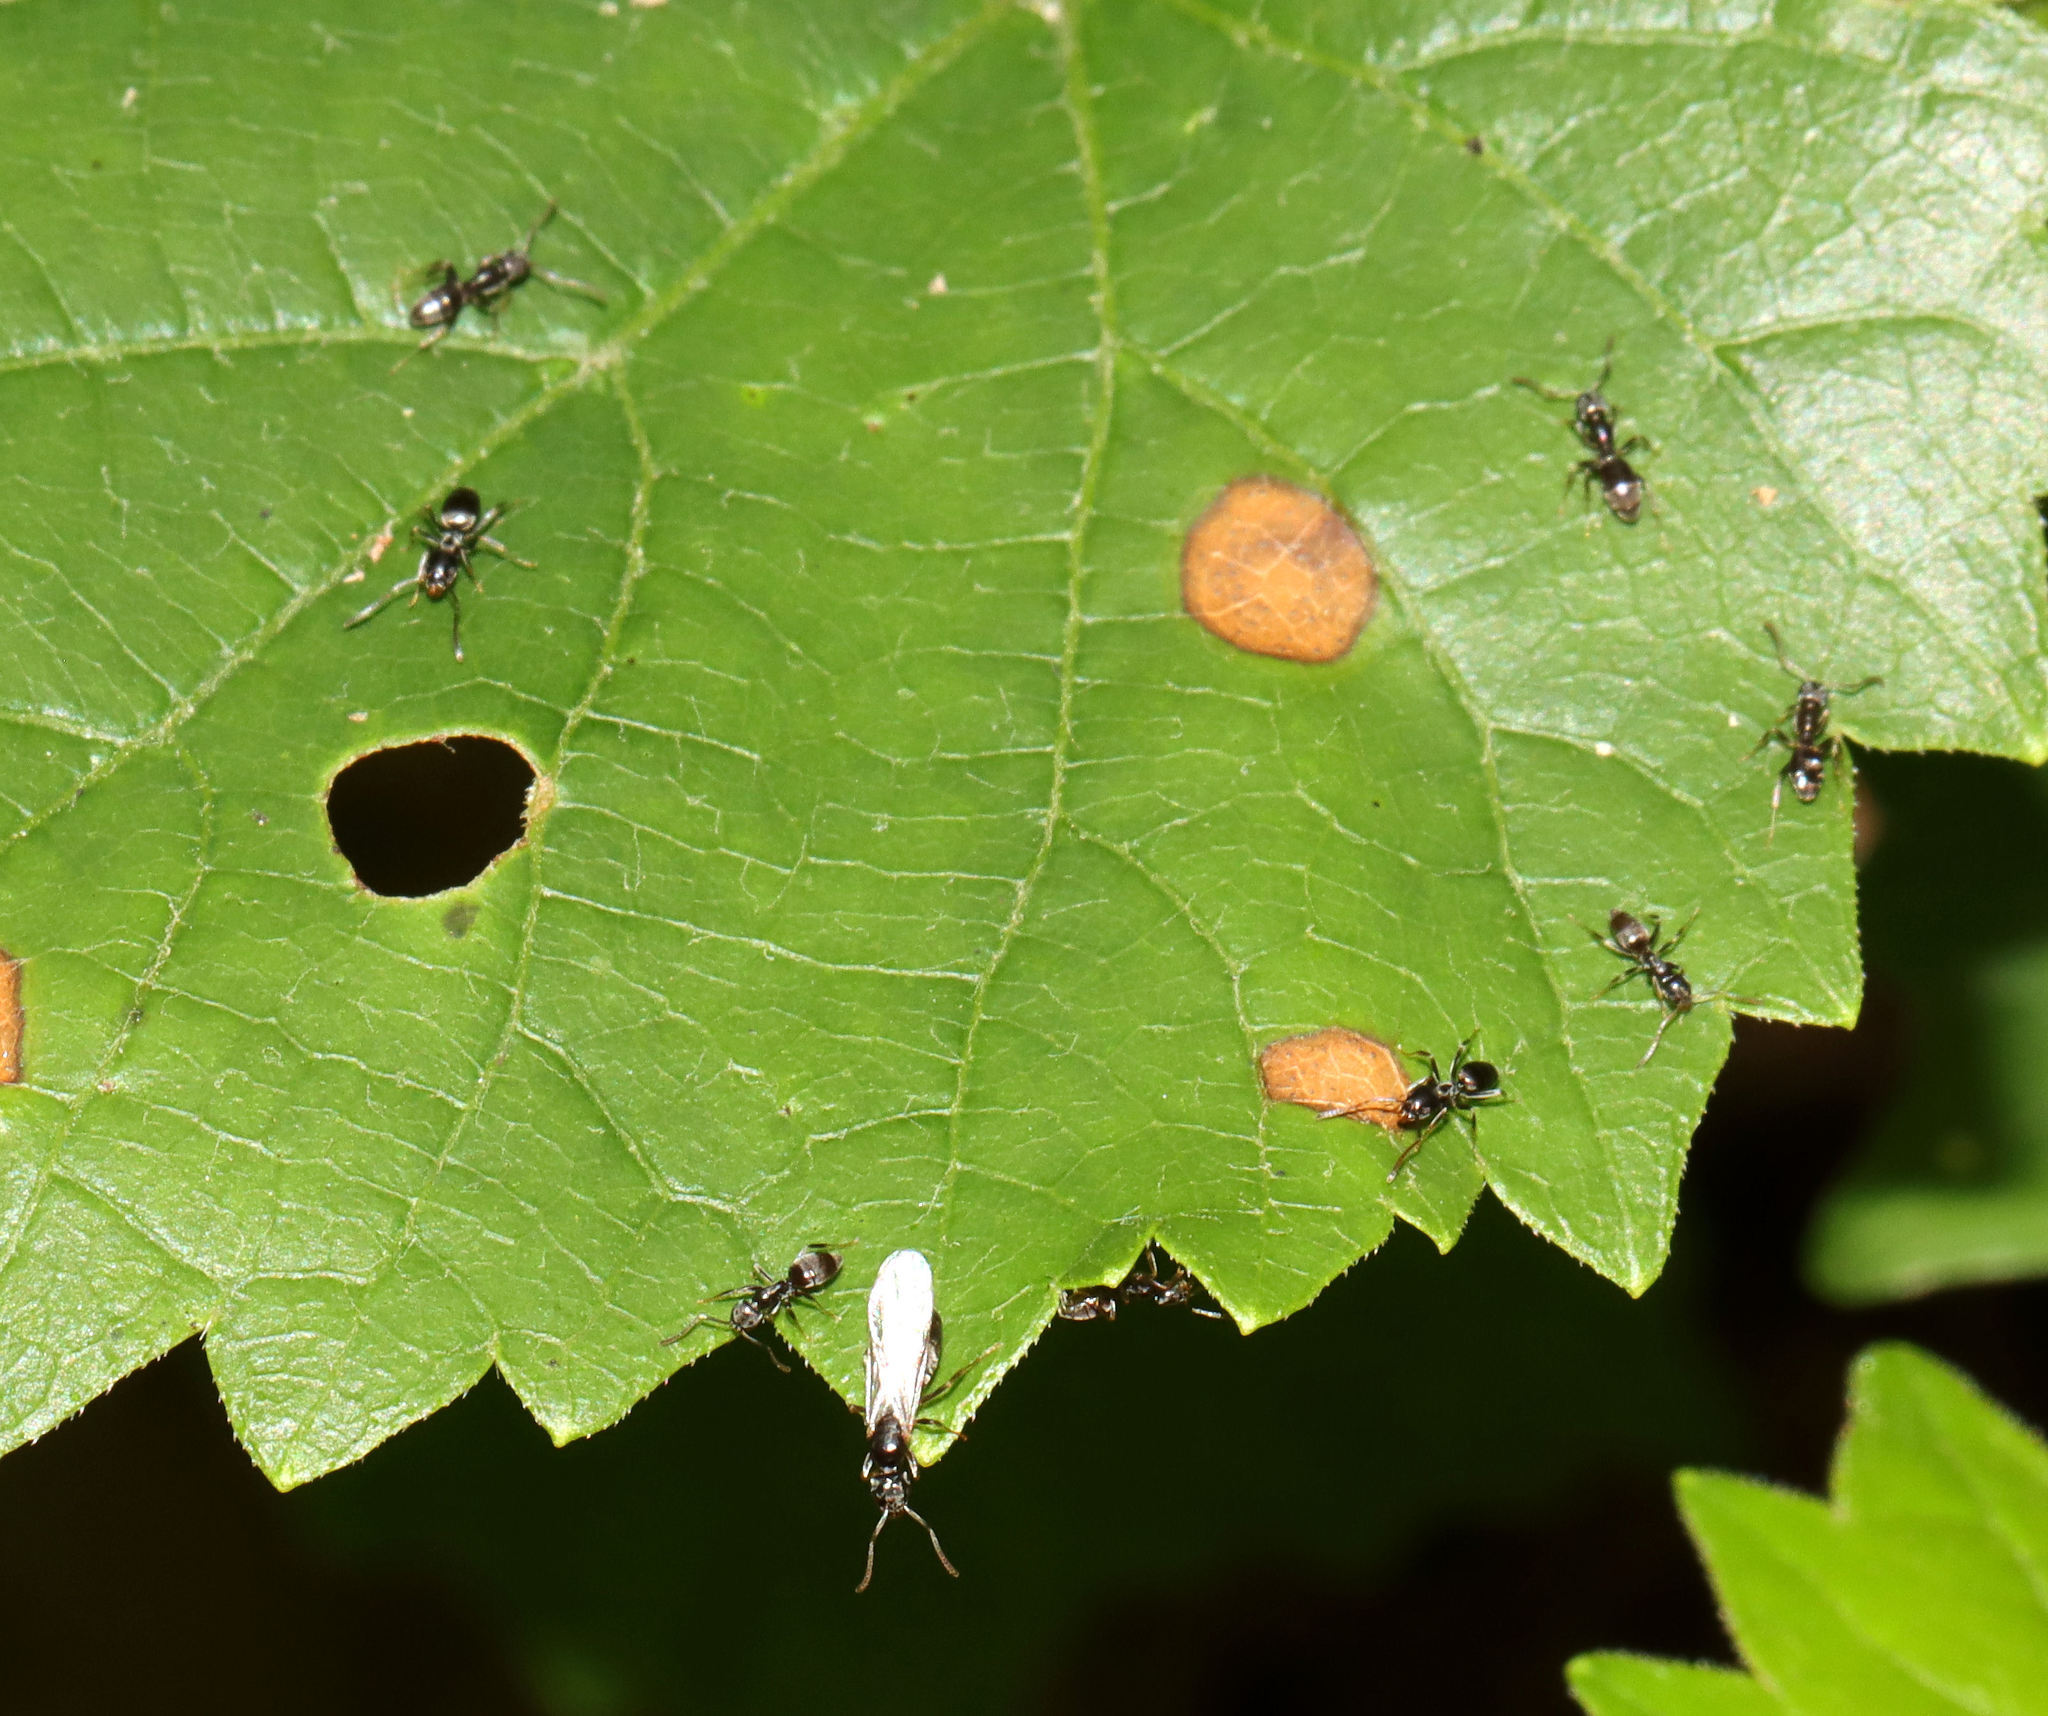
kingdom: Animalia
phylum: Arthropoda
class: Insecta
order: Hymenoptera
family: Formicidae
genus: Tapinoma
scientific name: Tapinoma sessile
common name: Odorous house ant
